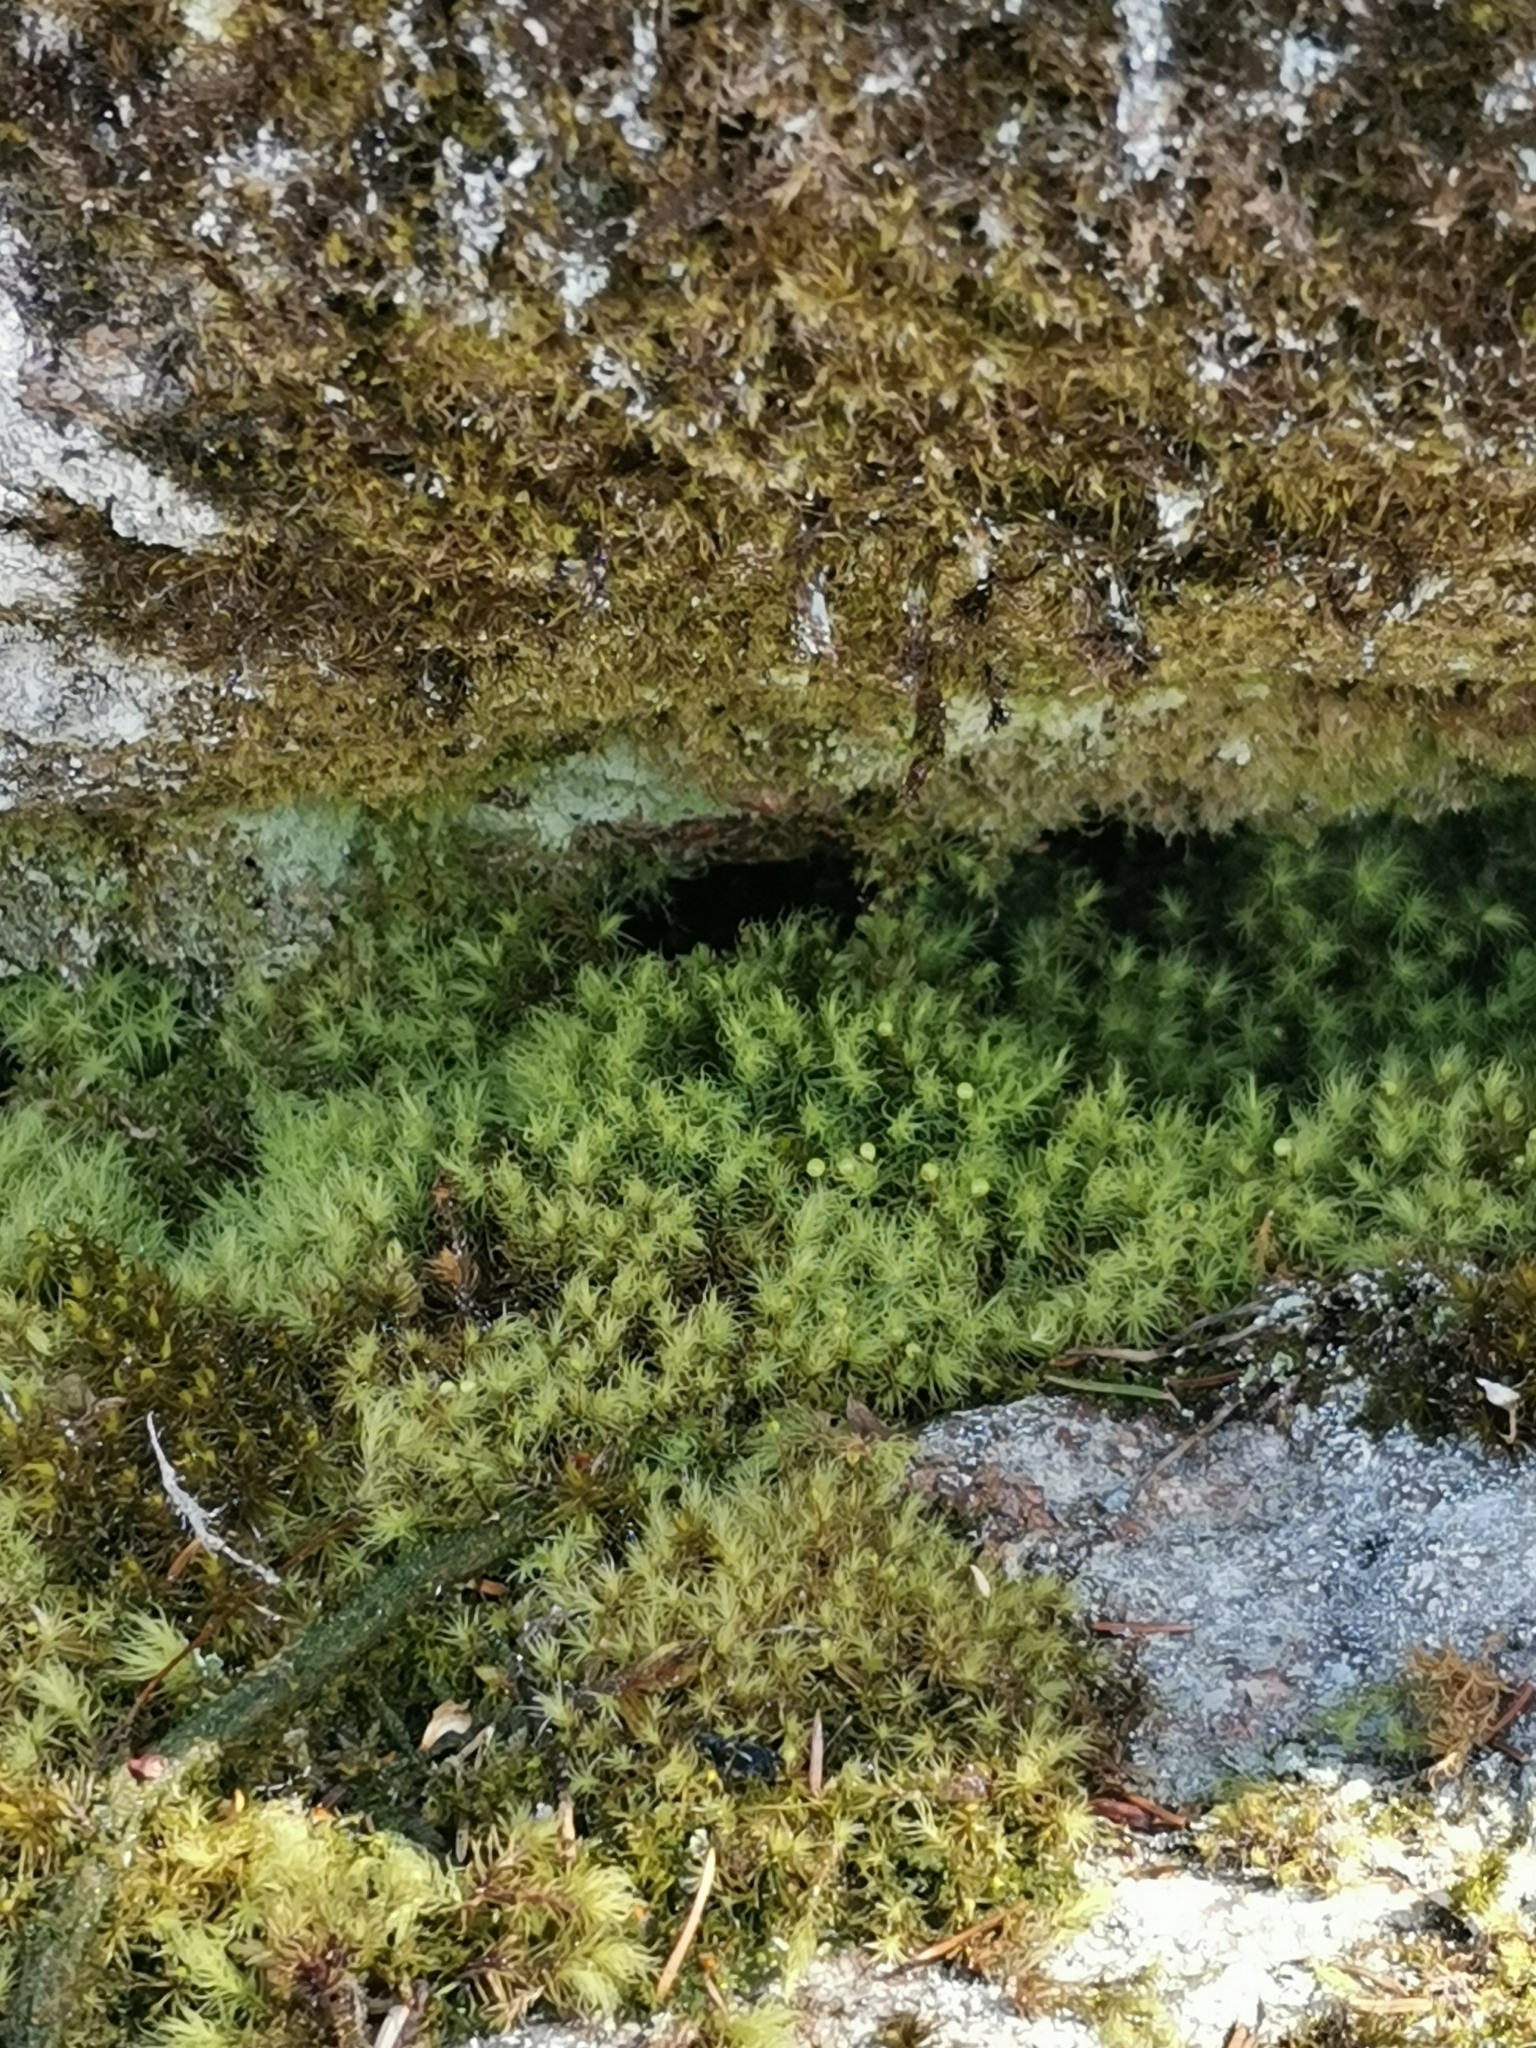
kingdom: Plantae
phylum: Bryophyta
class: Bryopsida
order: Bartramiales
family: Bartramiaceae
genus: Bartramia
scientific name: Bartramia ithyphylla
